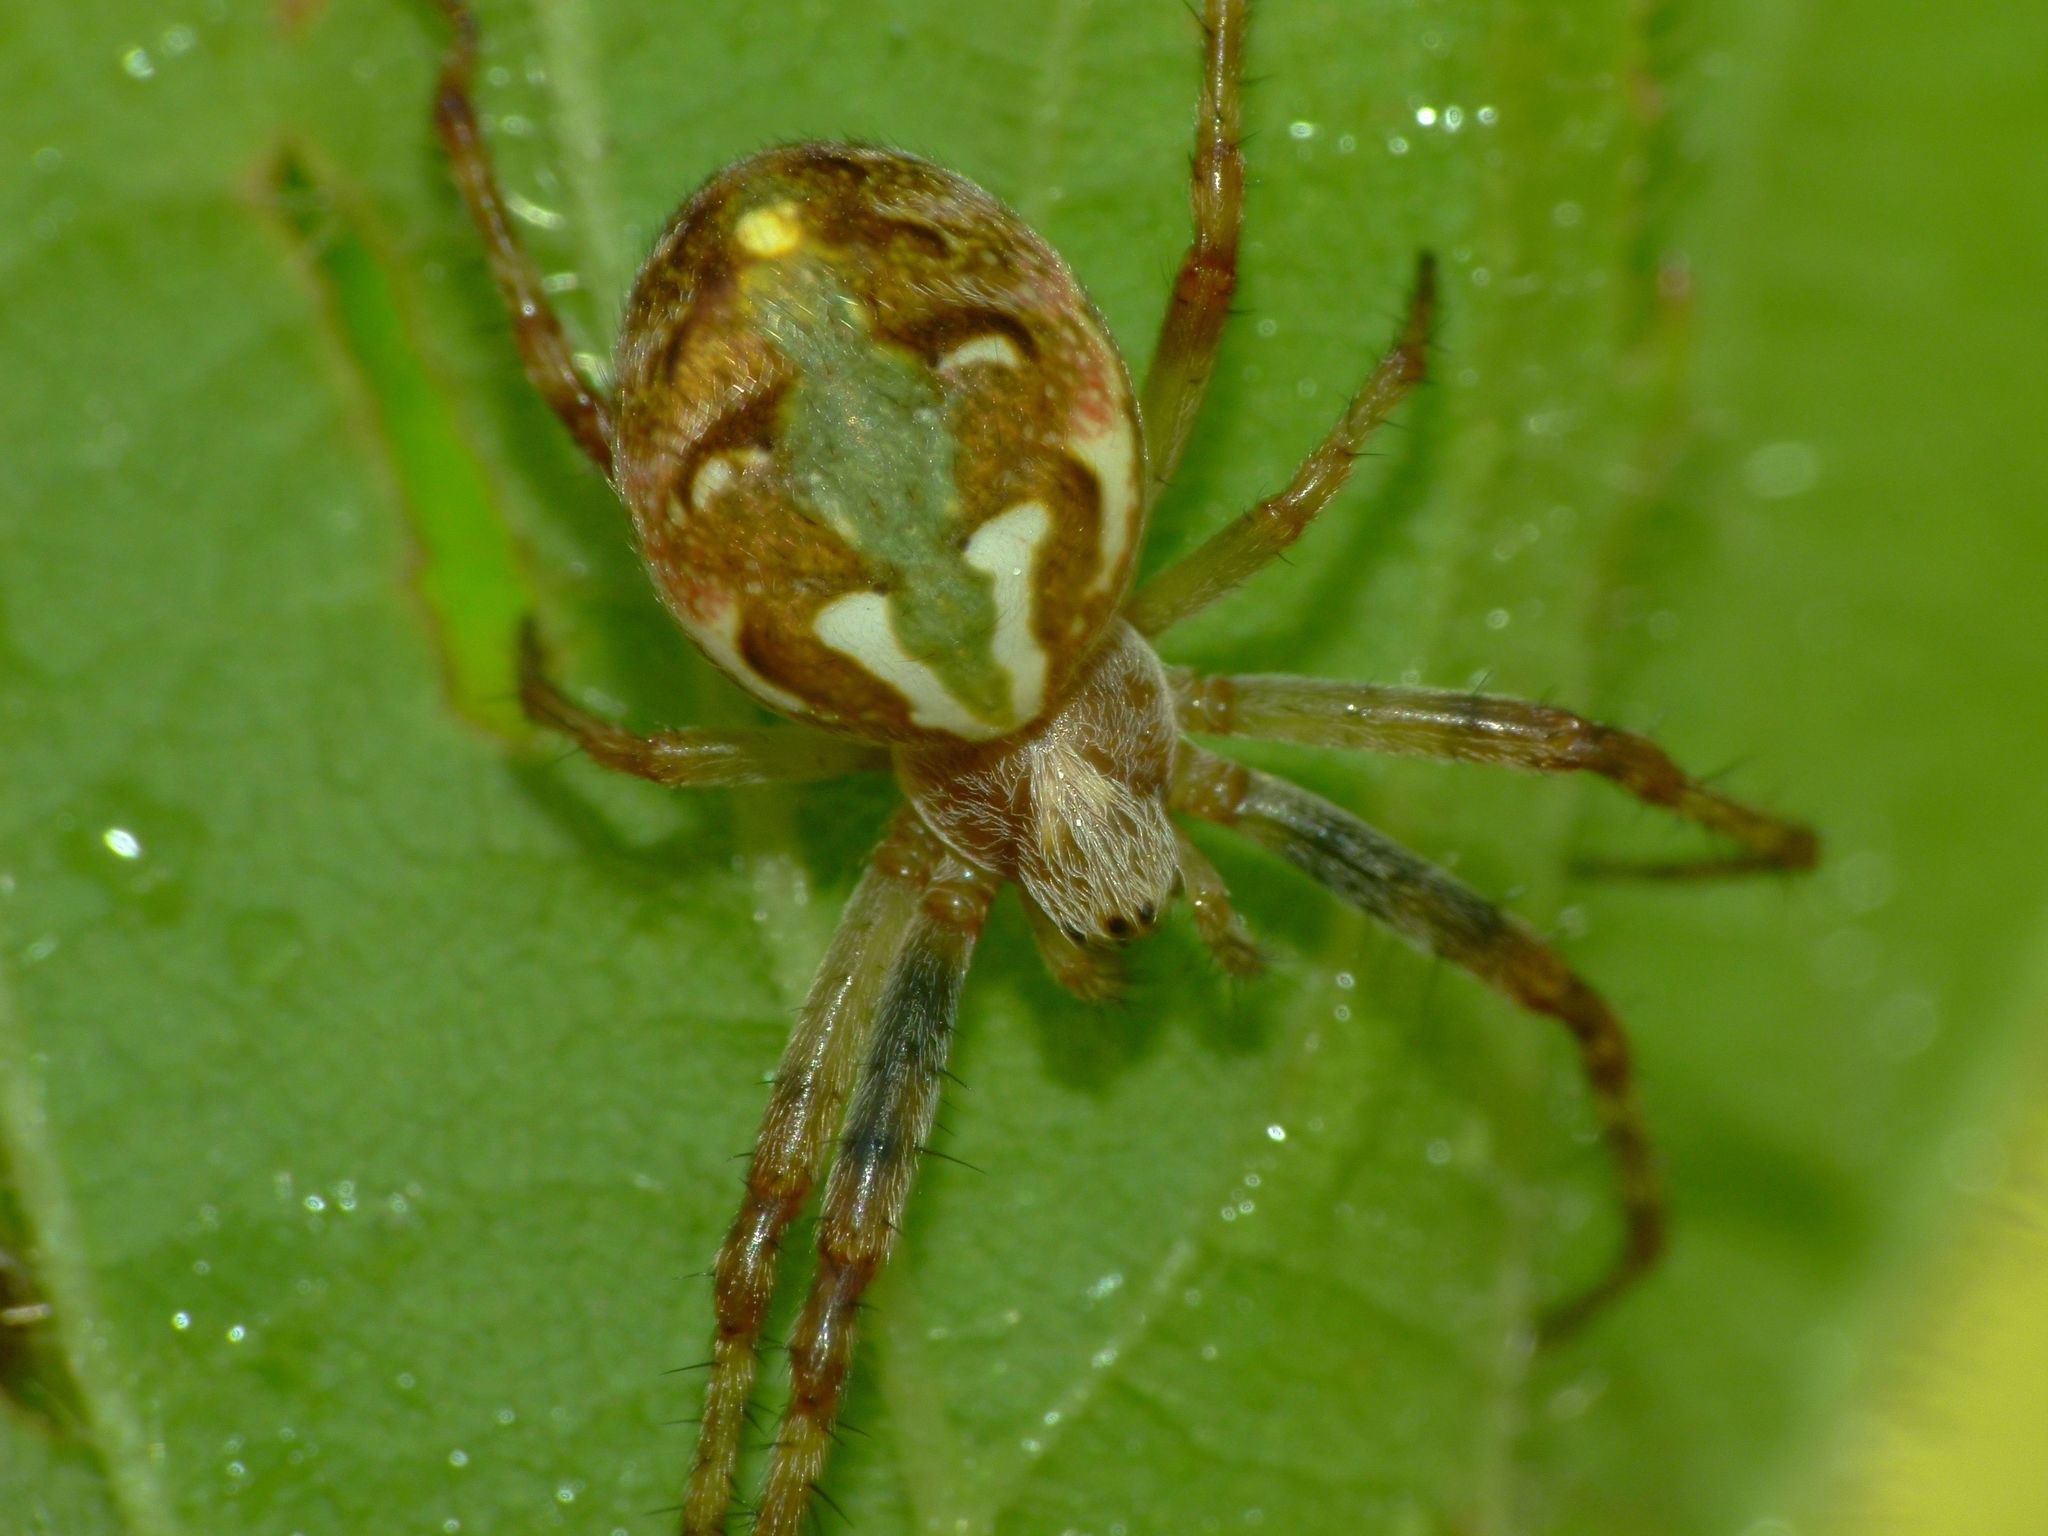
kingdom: Animalia
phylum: Arthropoda
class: Arachnida
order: Araneae
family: Araneidae
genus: Novaranea
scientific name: Novaranea queribunda
